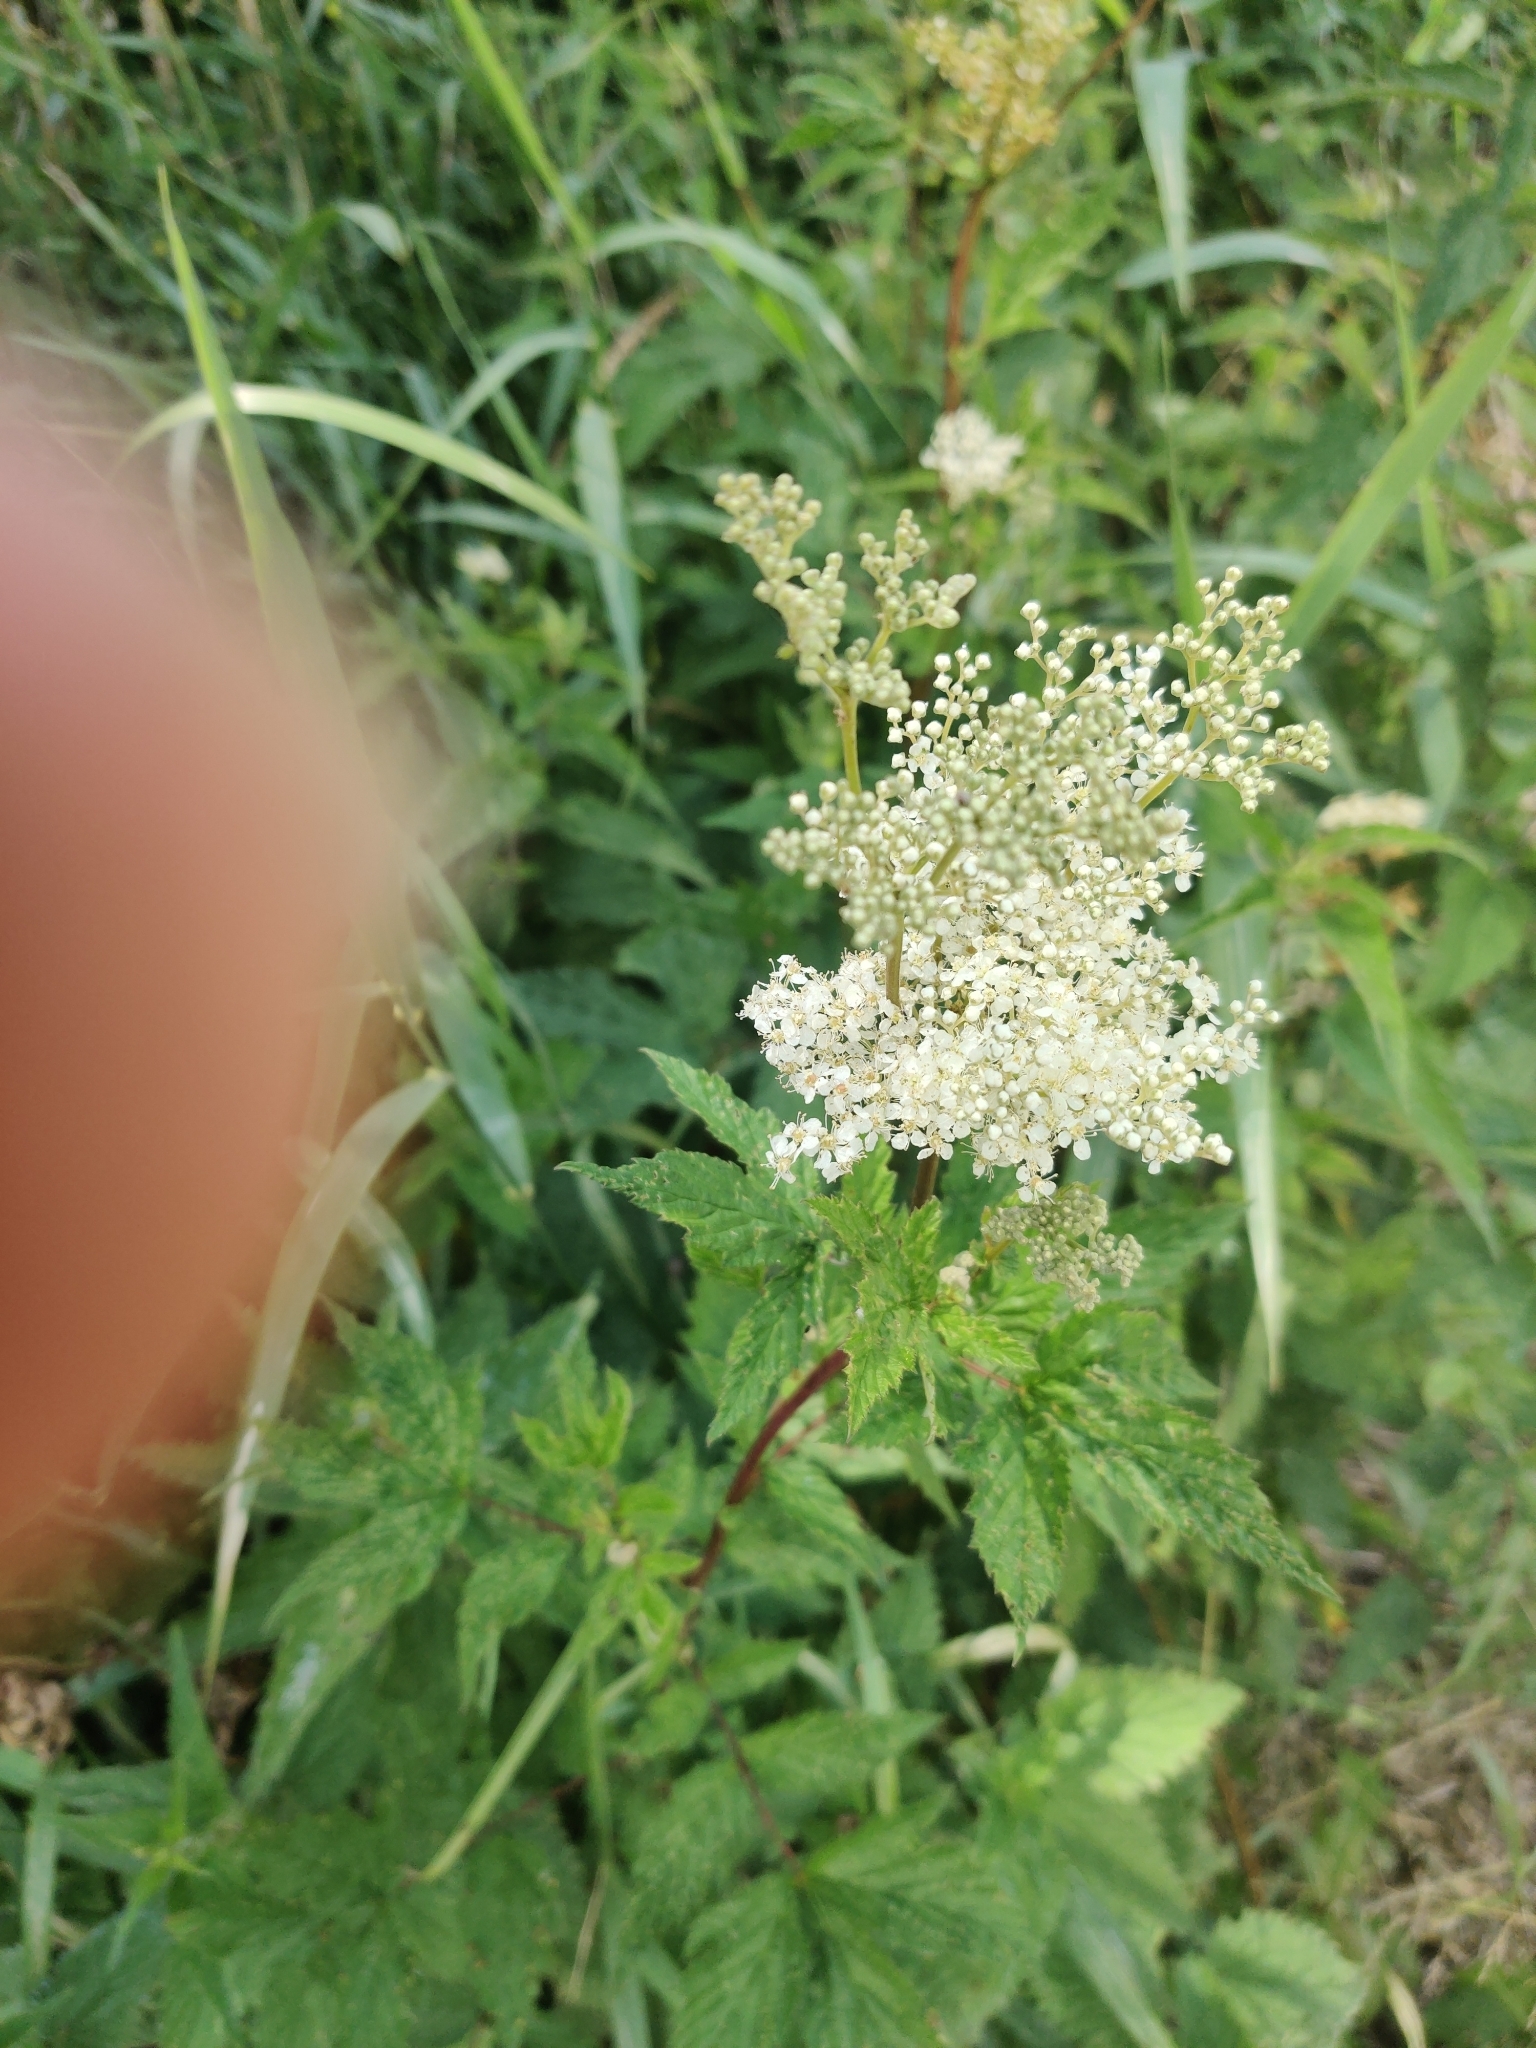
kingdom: Plantae
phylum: Tracheophyta
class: Magnoliopsida
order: Rosales
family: Rosaceae
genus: Filipendula
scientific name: Filipendula ulmaria
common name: Meadowsweet
